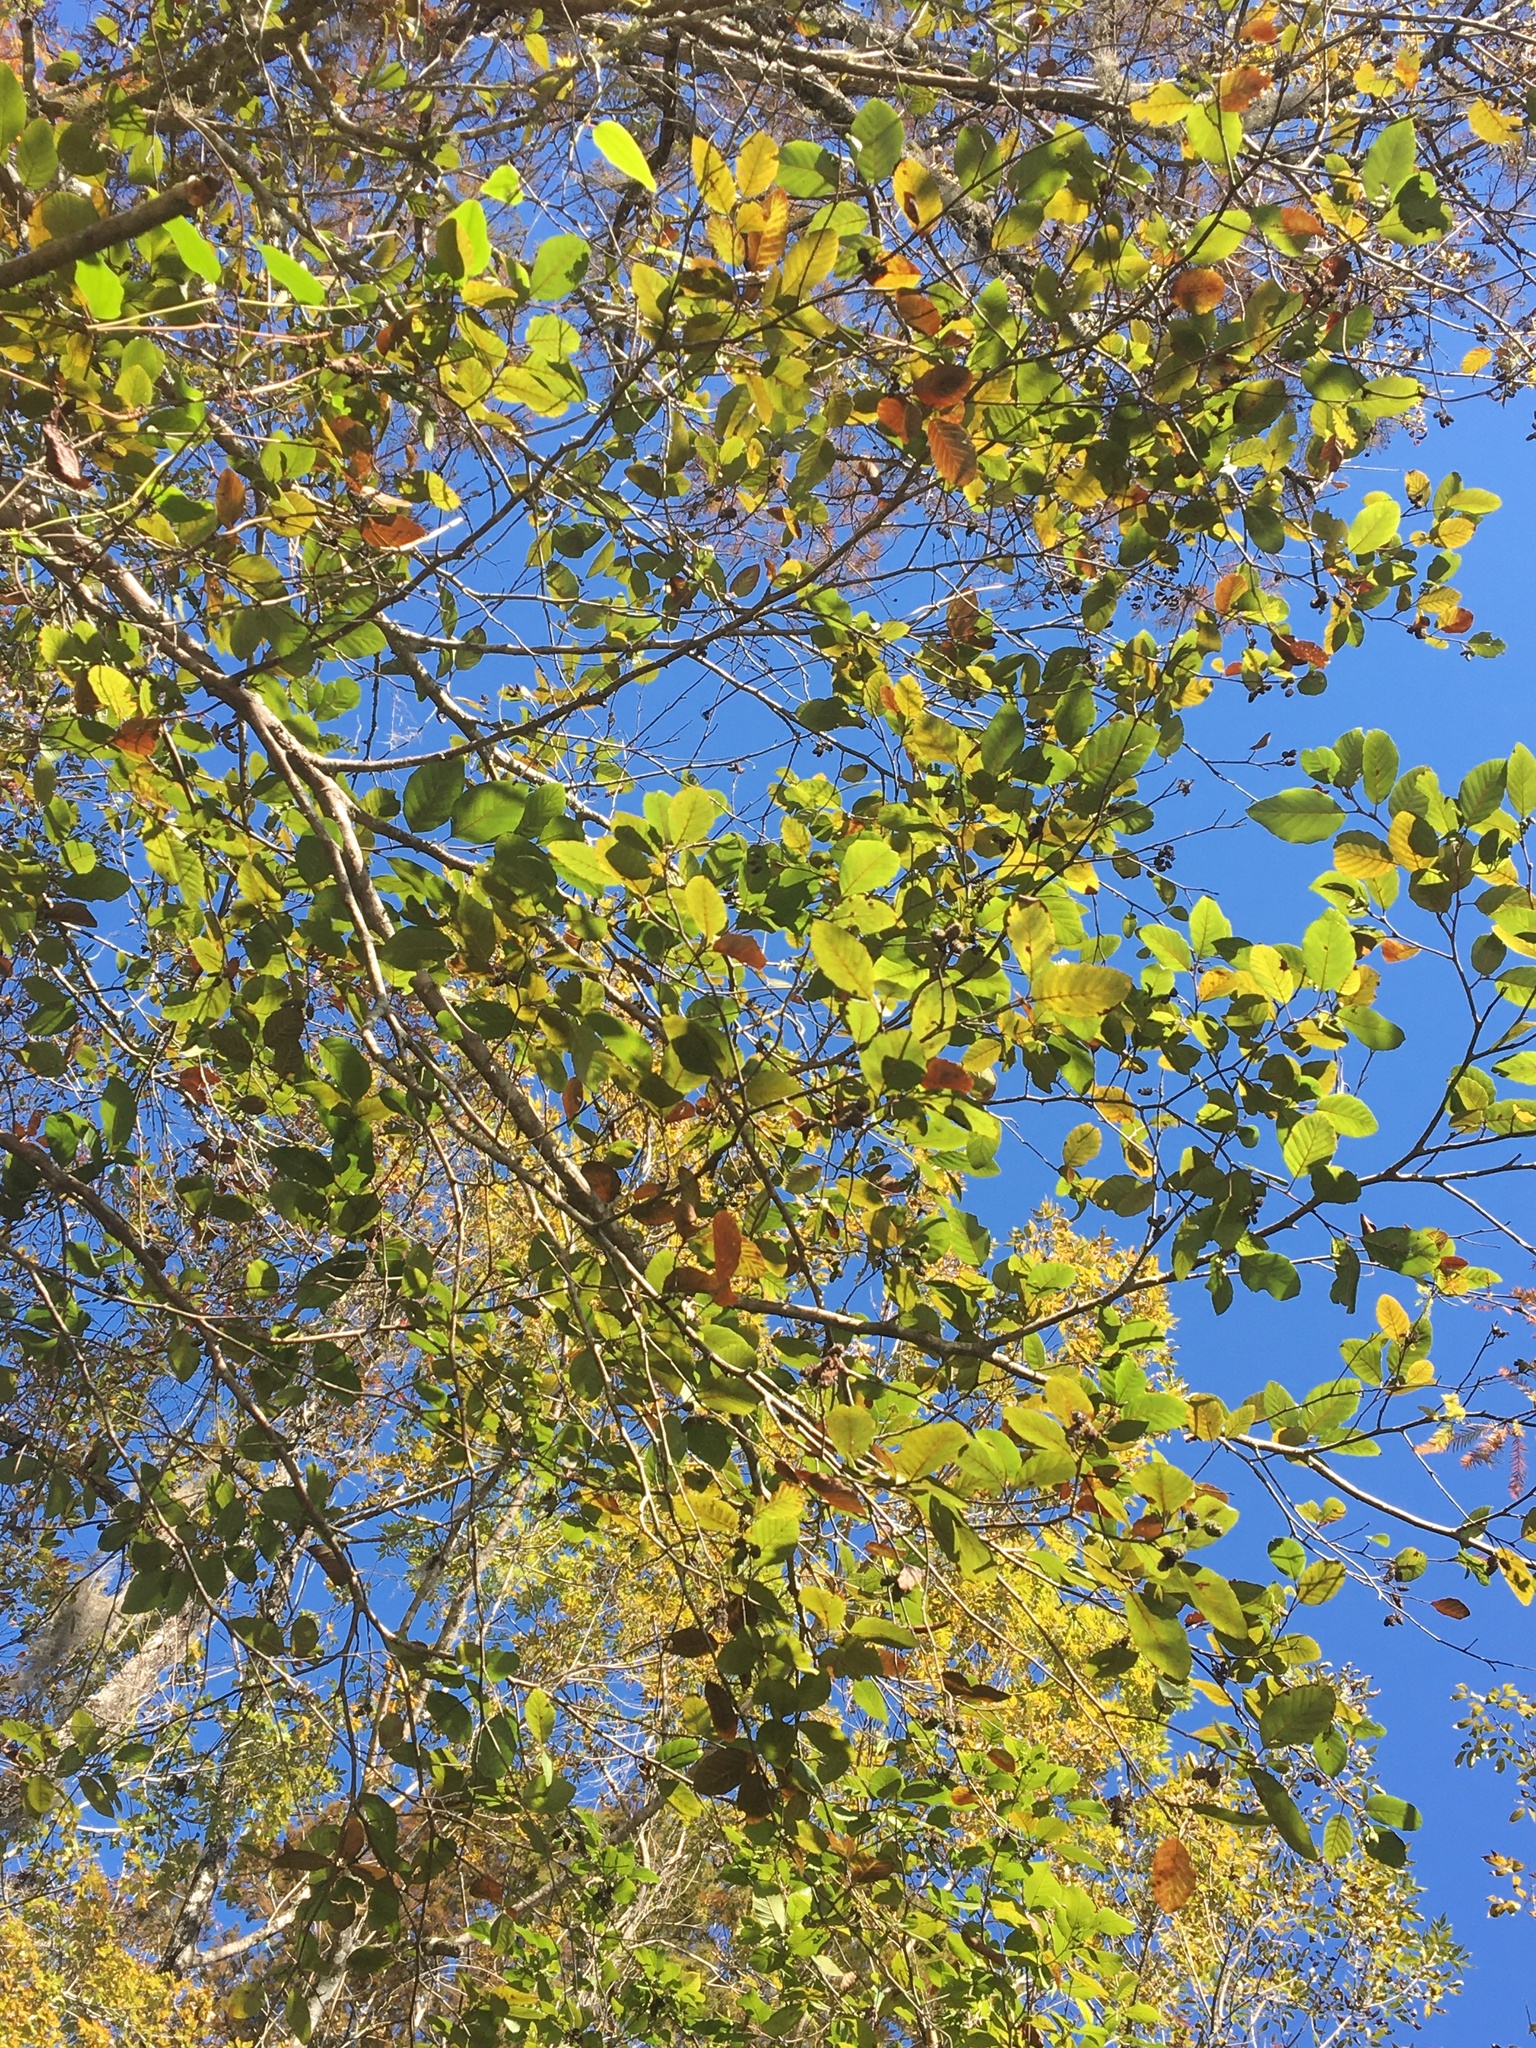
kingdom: Plantae
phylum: Tracheophyta
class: Magnoliopsida
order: Fagales
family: Betulaceae
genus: Alnus
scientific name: Alnus serrulata
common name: Hazel alder
